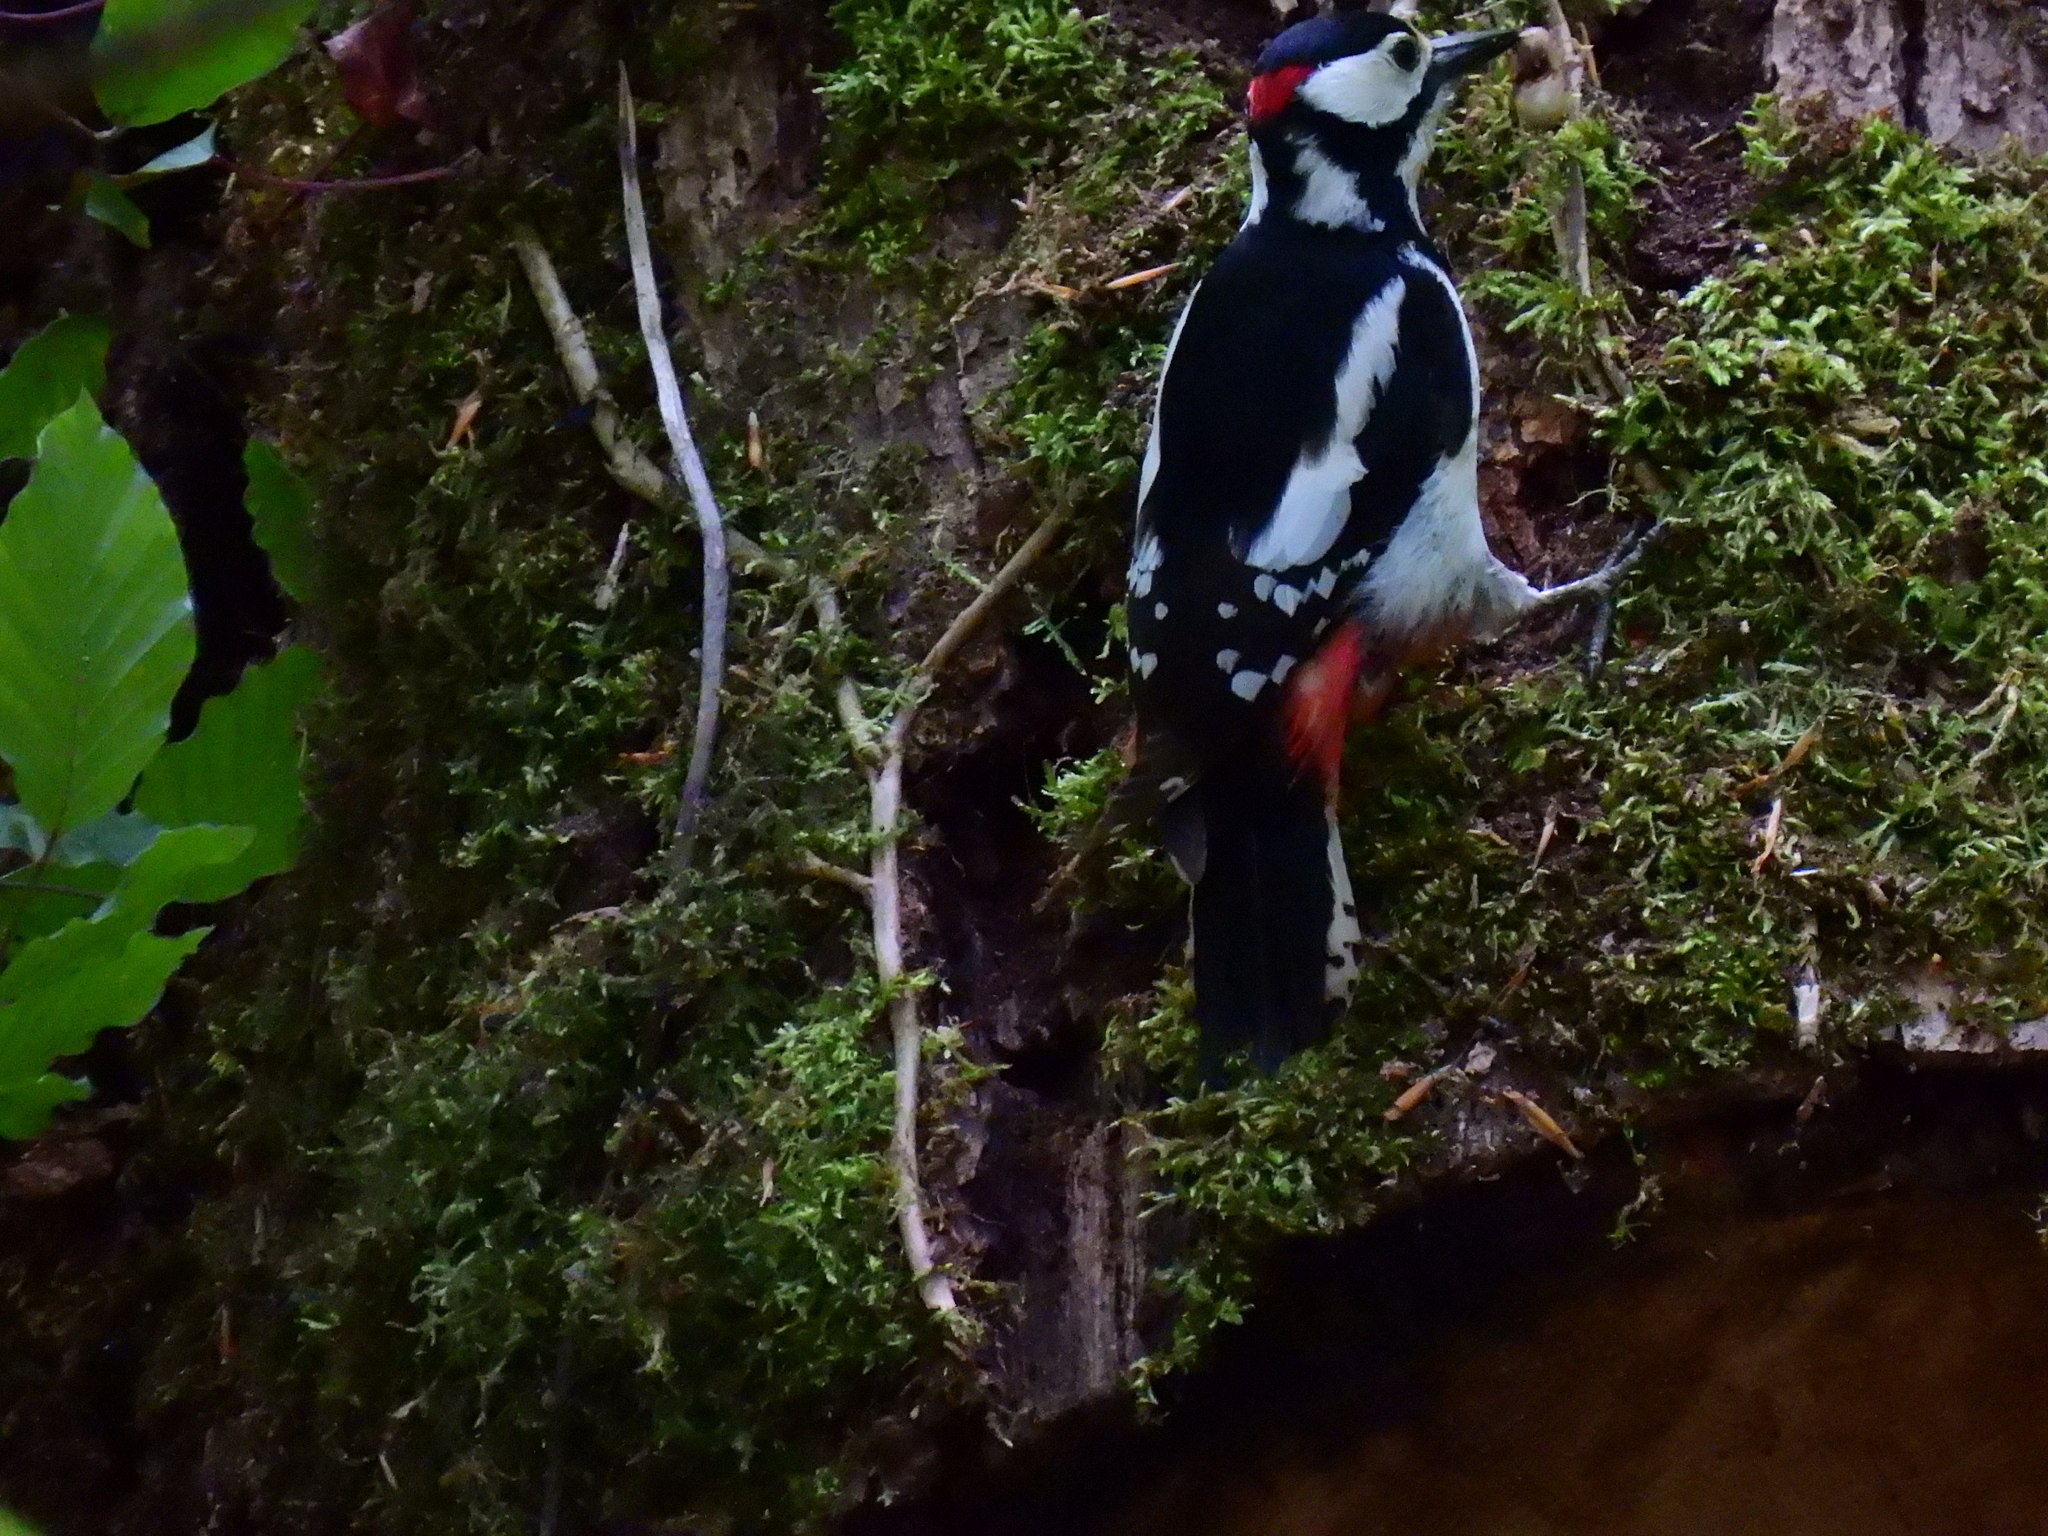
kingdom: Animalia
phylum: Chordata
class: Aves
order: Piciformes
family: Picidae
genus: Dendrocopos
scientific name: Dendrocopos major
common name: Great spotted woodpecker
